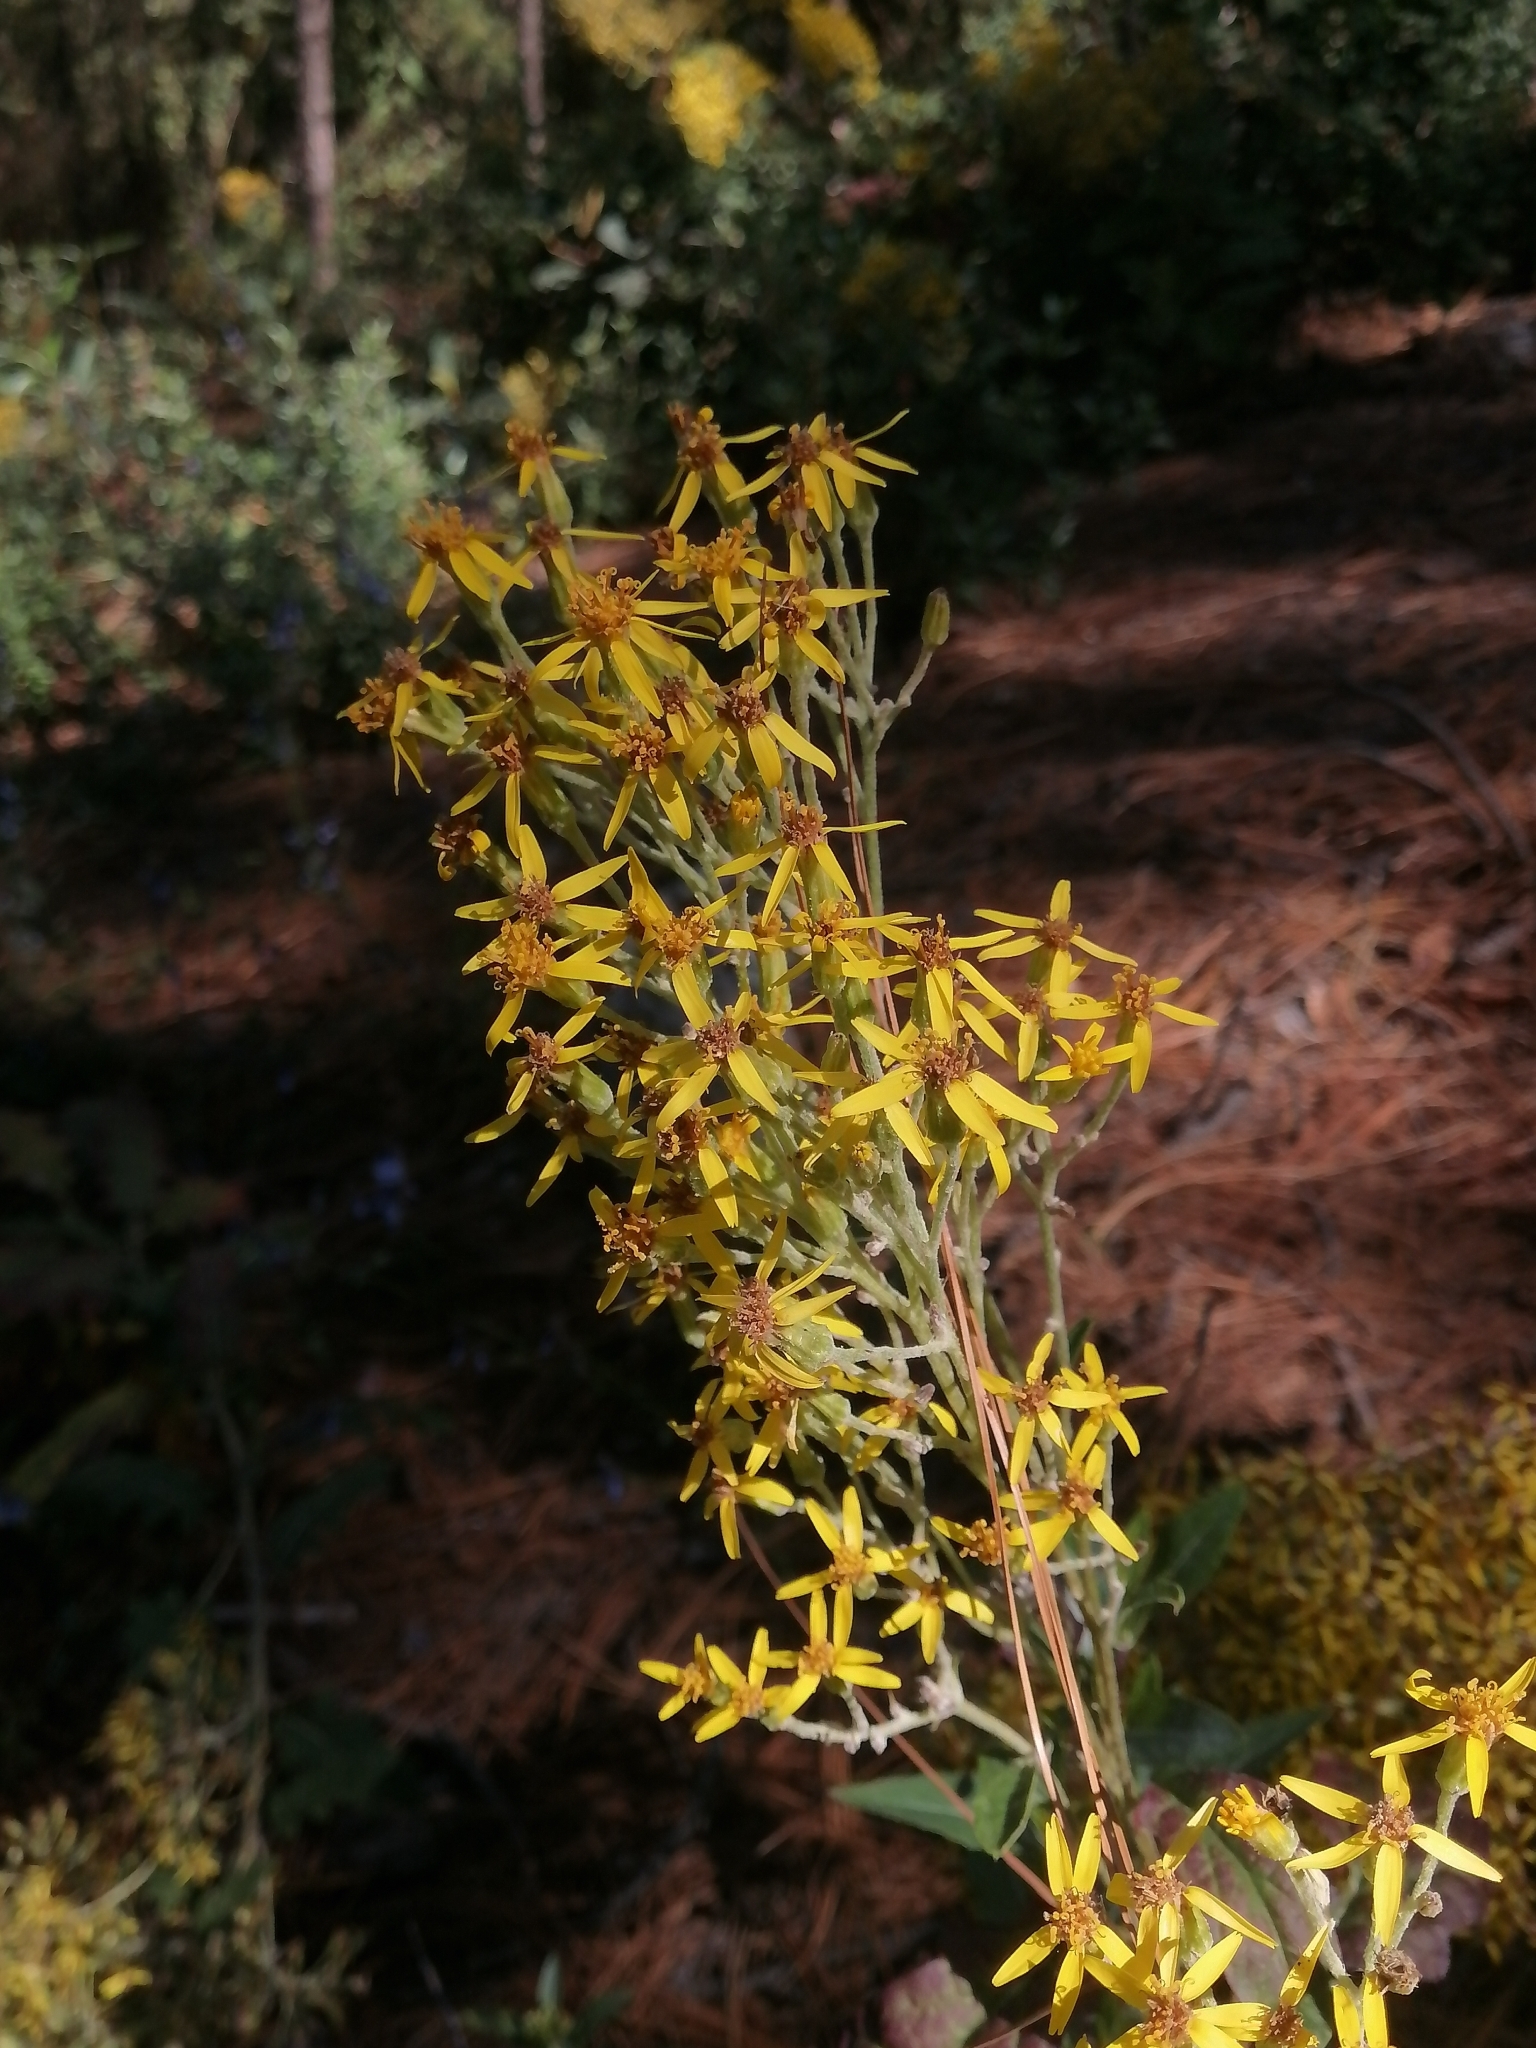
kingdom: Plantae
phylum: Tracheophyta
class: Magnoliopsida
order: Asterales
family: Asteraceae
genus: Roldana
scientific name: Roldana candicans
